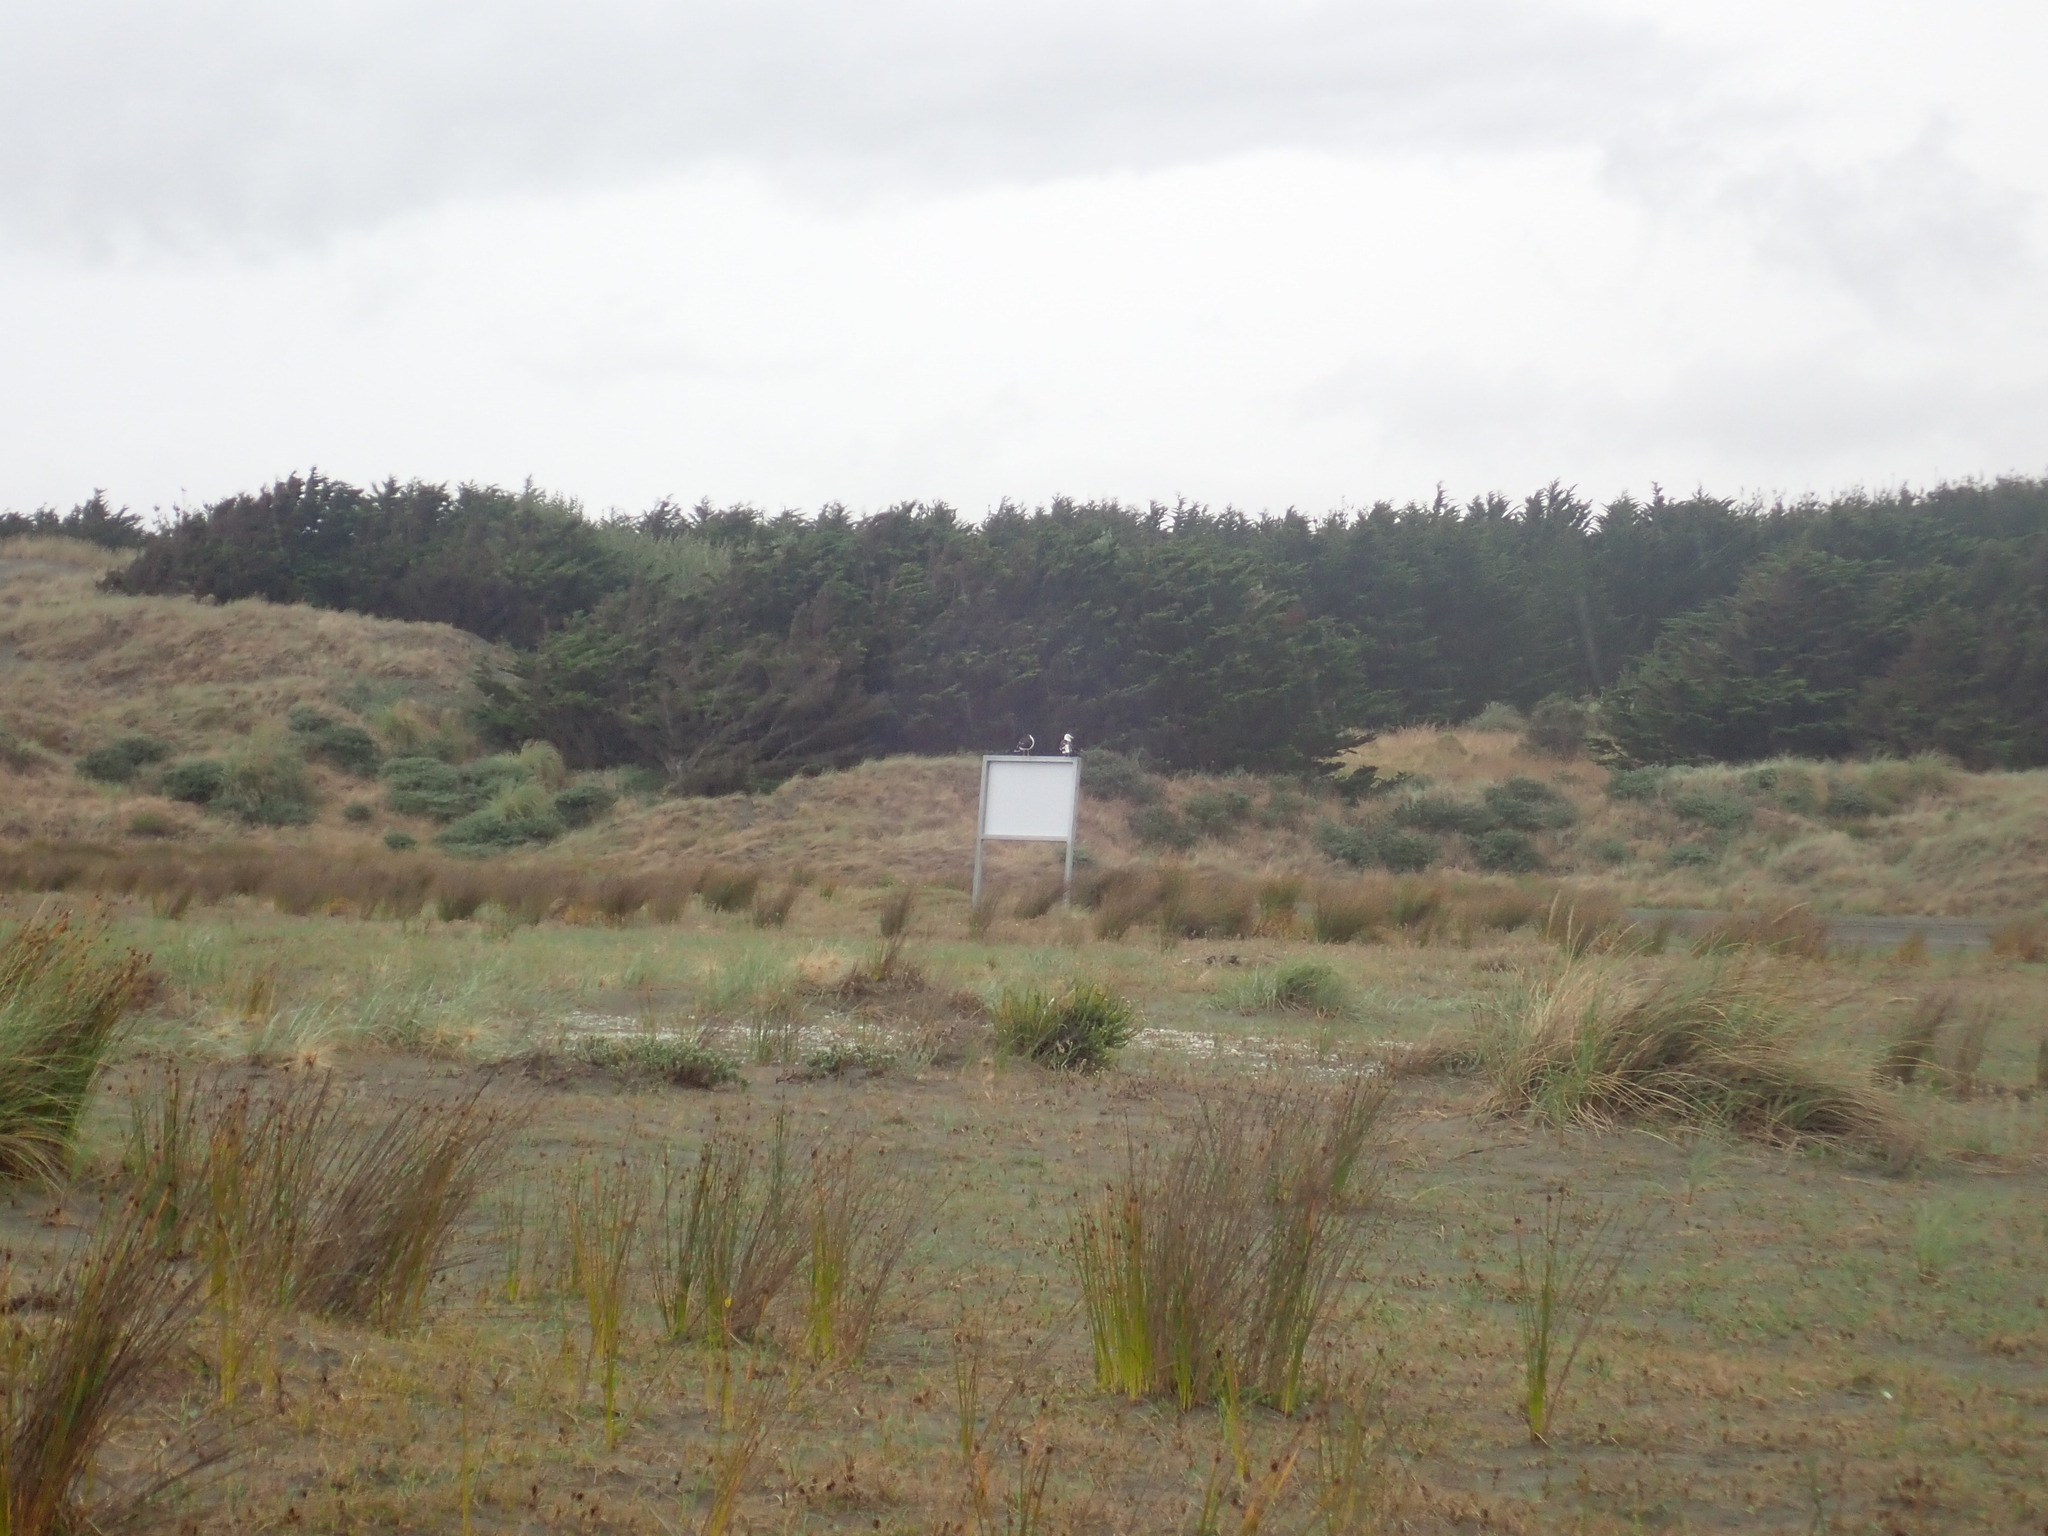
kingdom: Animalia
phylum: Chordata
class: Aves
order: Charadriiformes
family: Laridae
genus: Larus
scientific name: Larus dominicanus
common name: Kelp gull
